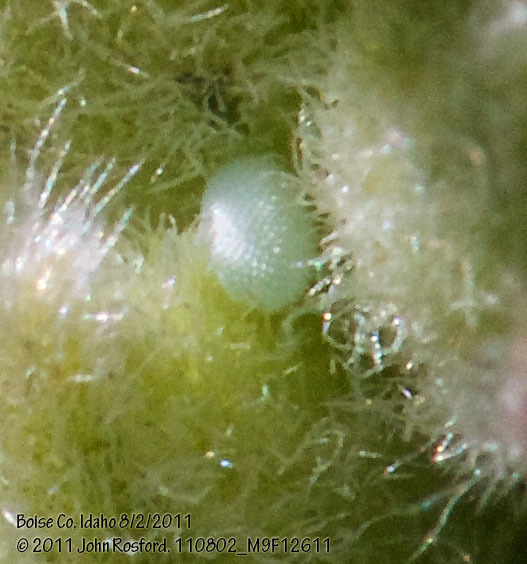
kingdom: Animalia
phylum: Arthropoda
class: Insecta
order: Lepidoptera
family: Lycaenidae
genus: Glaucopsyche
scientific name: Glaucopsyche piasus
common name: Arrowhead blue
